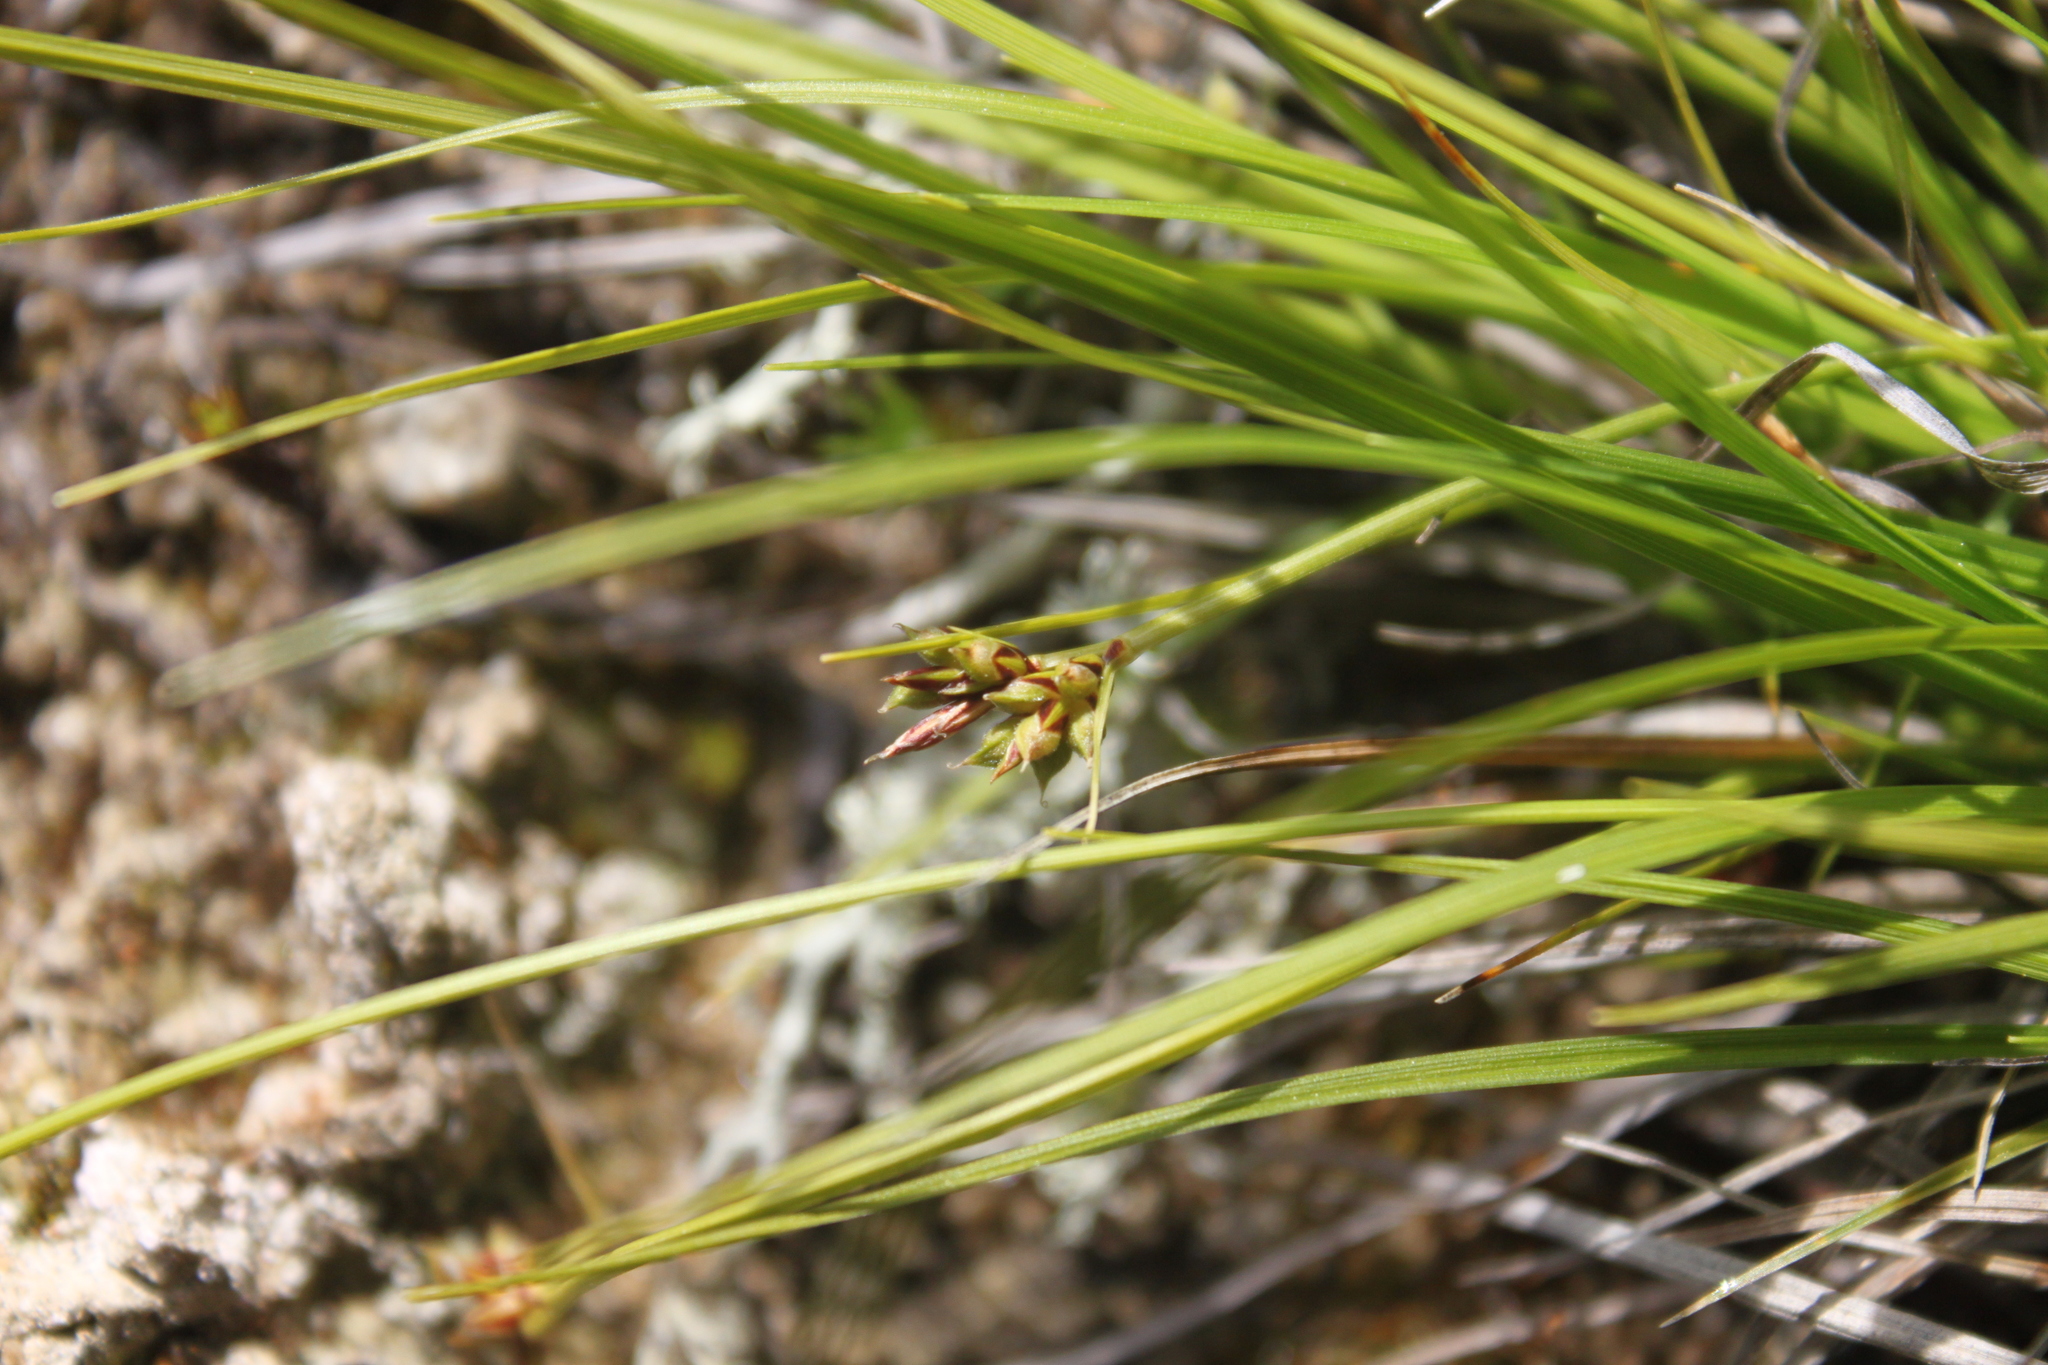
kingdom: Plantae
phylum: Tracheophyta
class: Liliopsida
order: Poales
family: Cyperaceae
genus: Carex
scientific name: Carex deflexa
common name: Bent northern sedge
